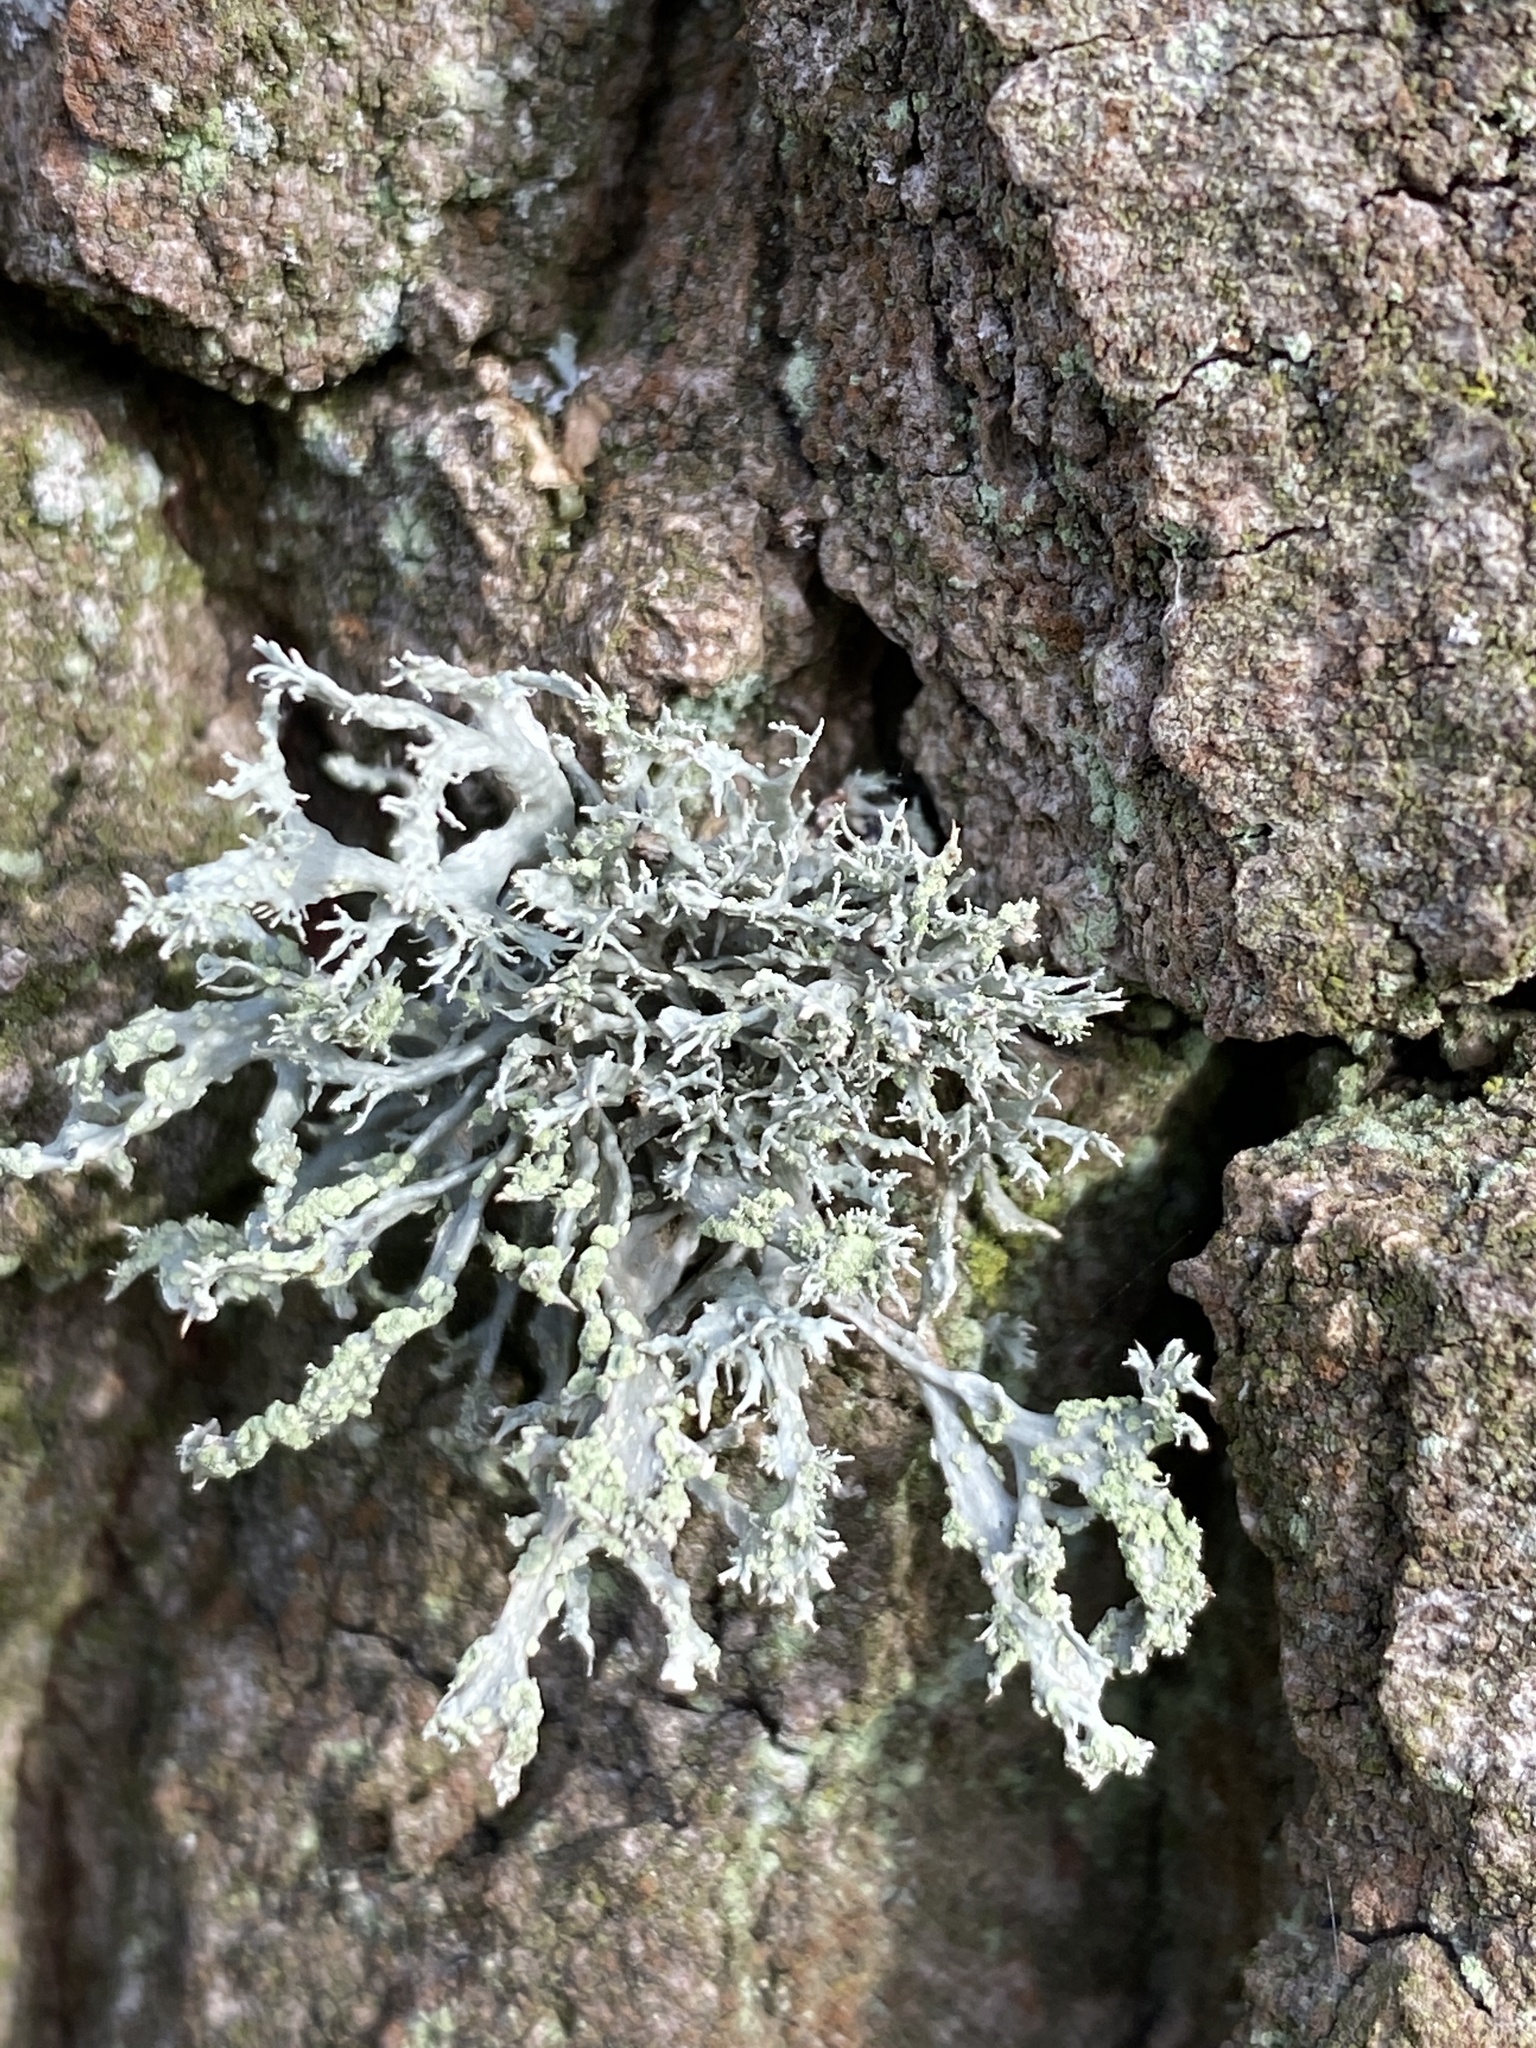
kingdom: Fungi
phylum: Ascomycota
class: Lecanoromycetes
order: Lecanorales
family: Ramalinaceae
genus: Ramalina
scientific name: Ramalina farinacea
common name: Farinose cartilage lichen
